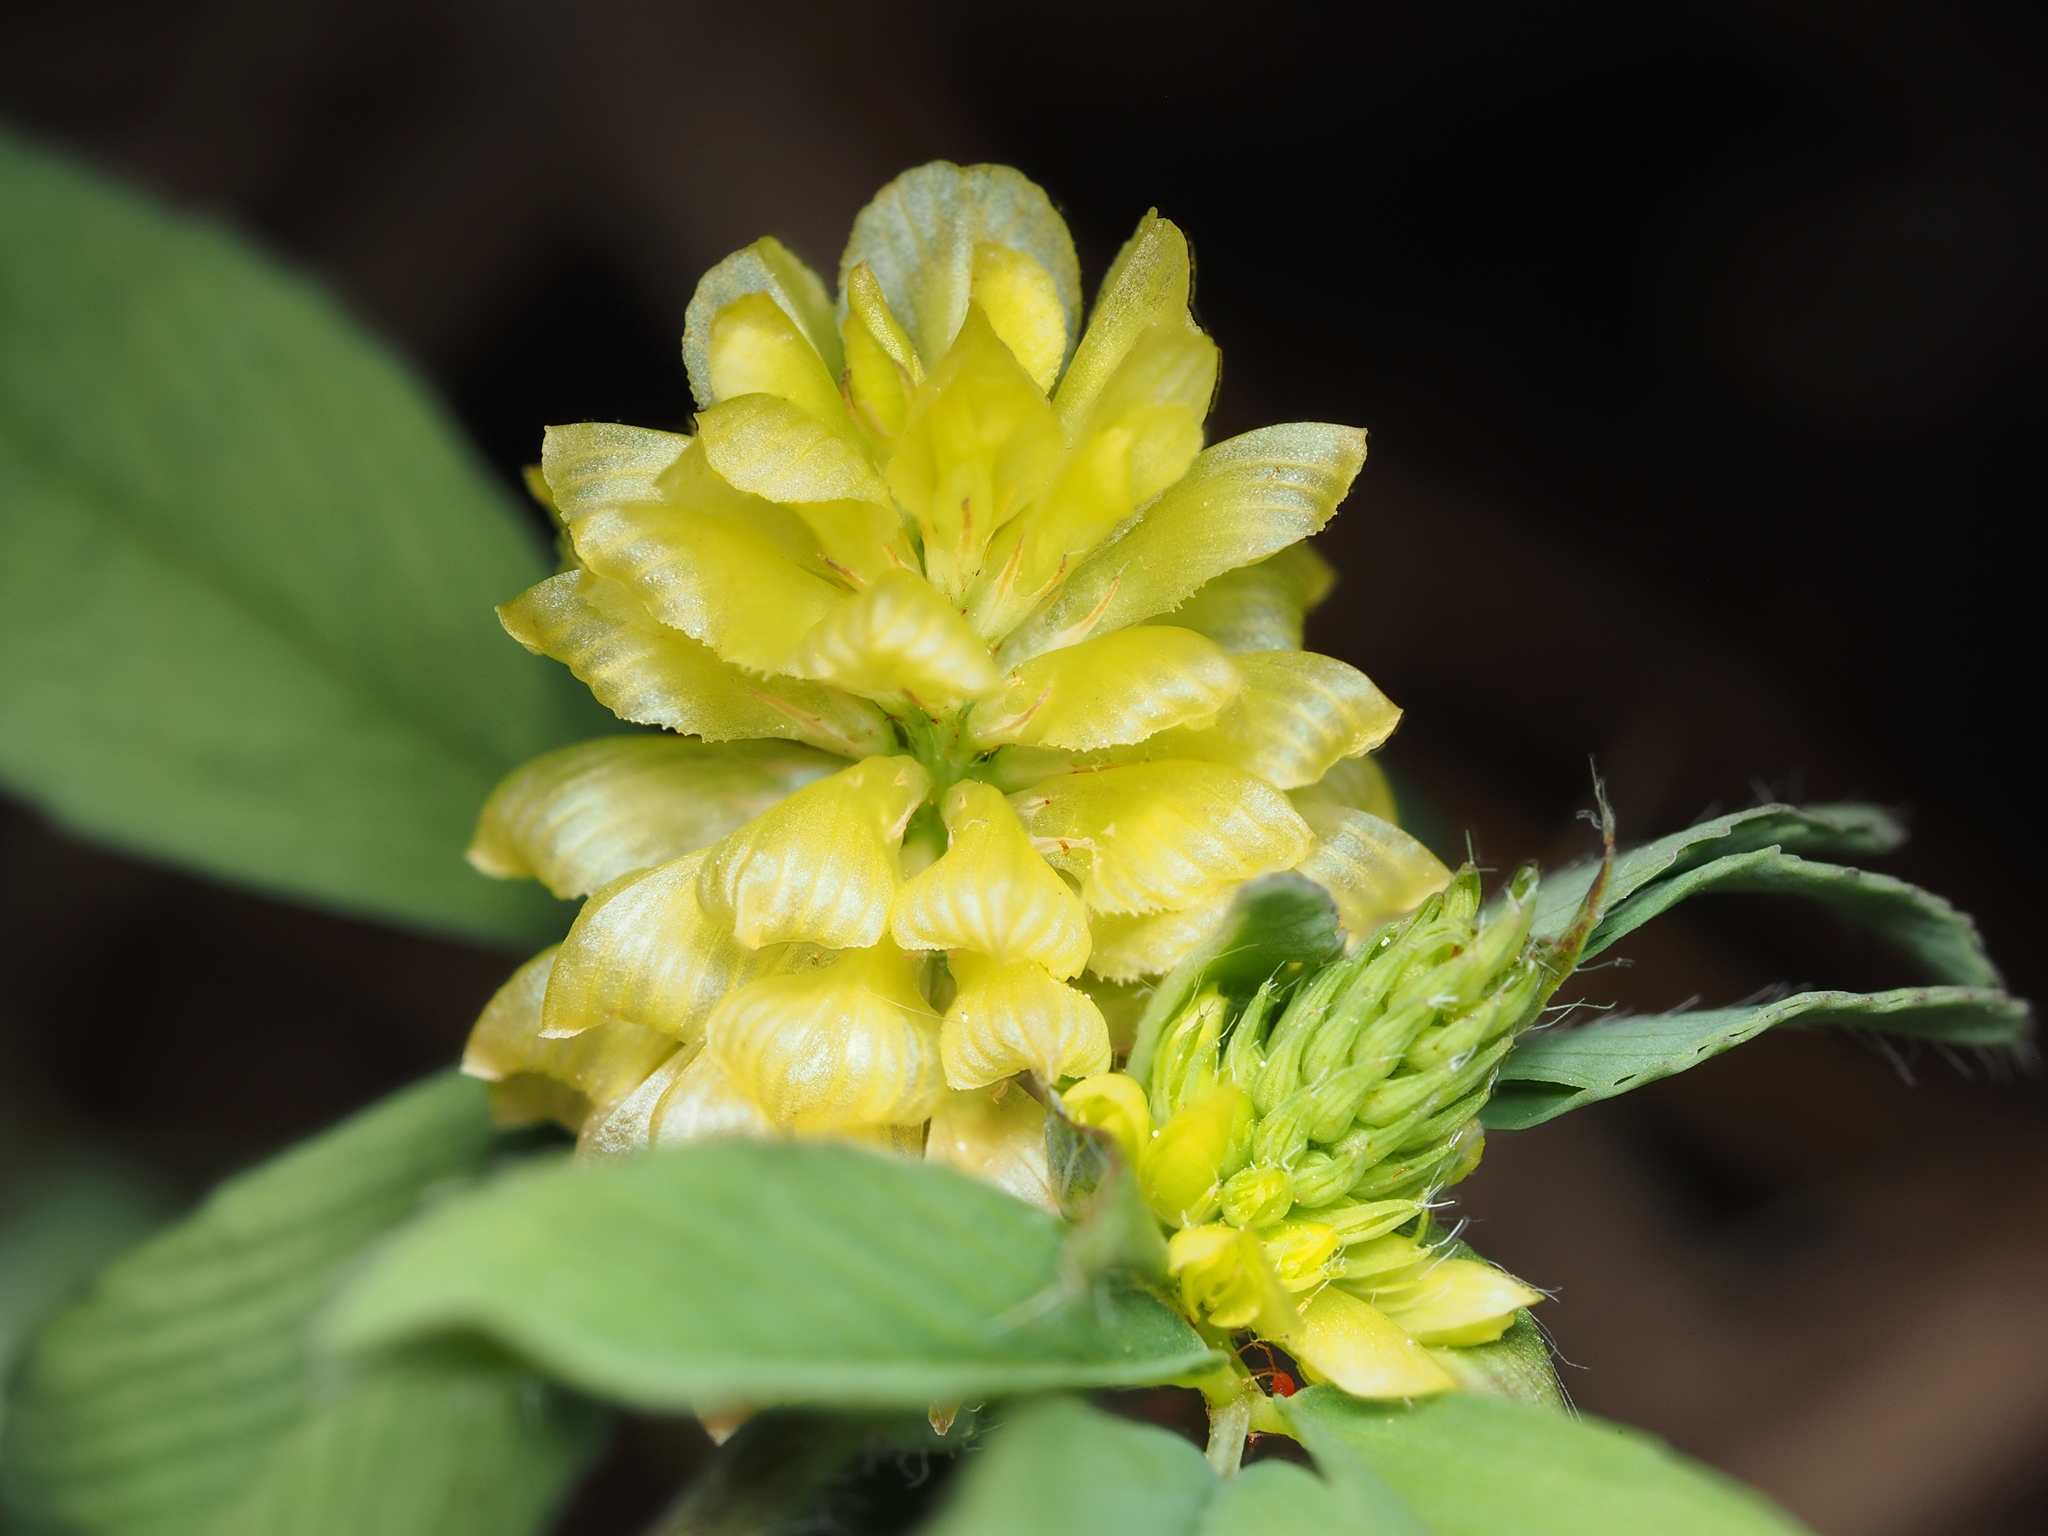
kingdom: Plantae
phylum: Tracheophyta
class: Magnoliopsida
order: Fabales
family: Fabaceae
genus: Trifolium
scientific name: Trifolium campestre
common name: Field clover
